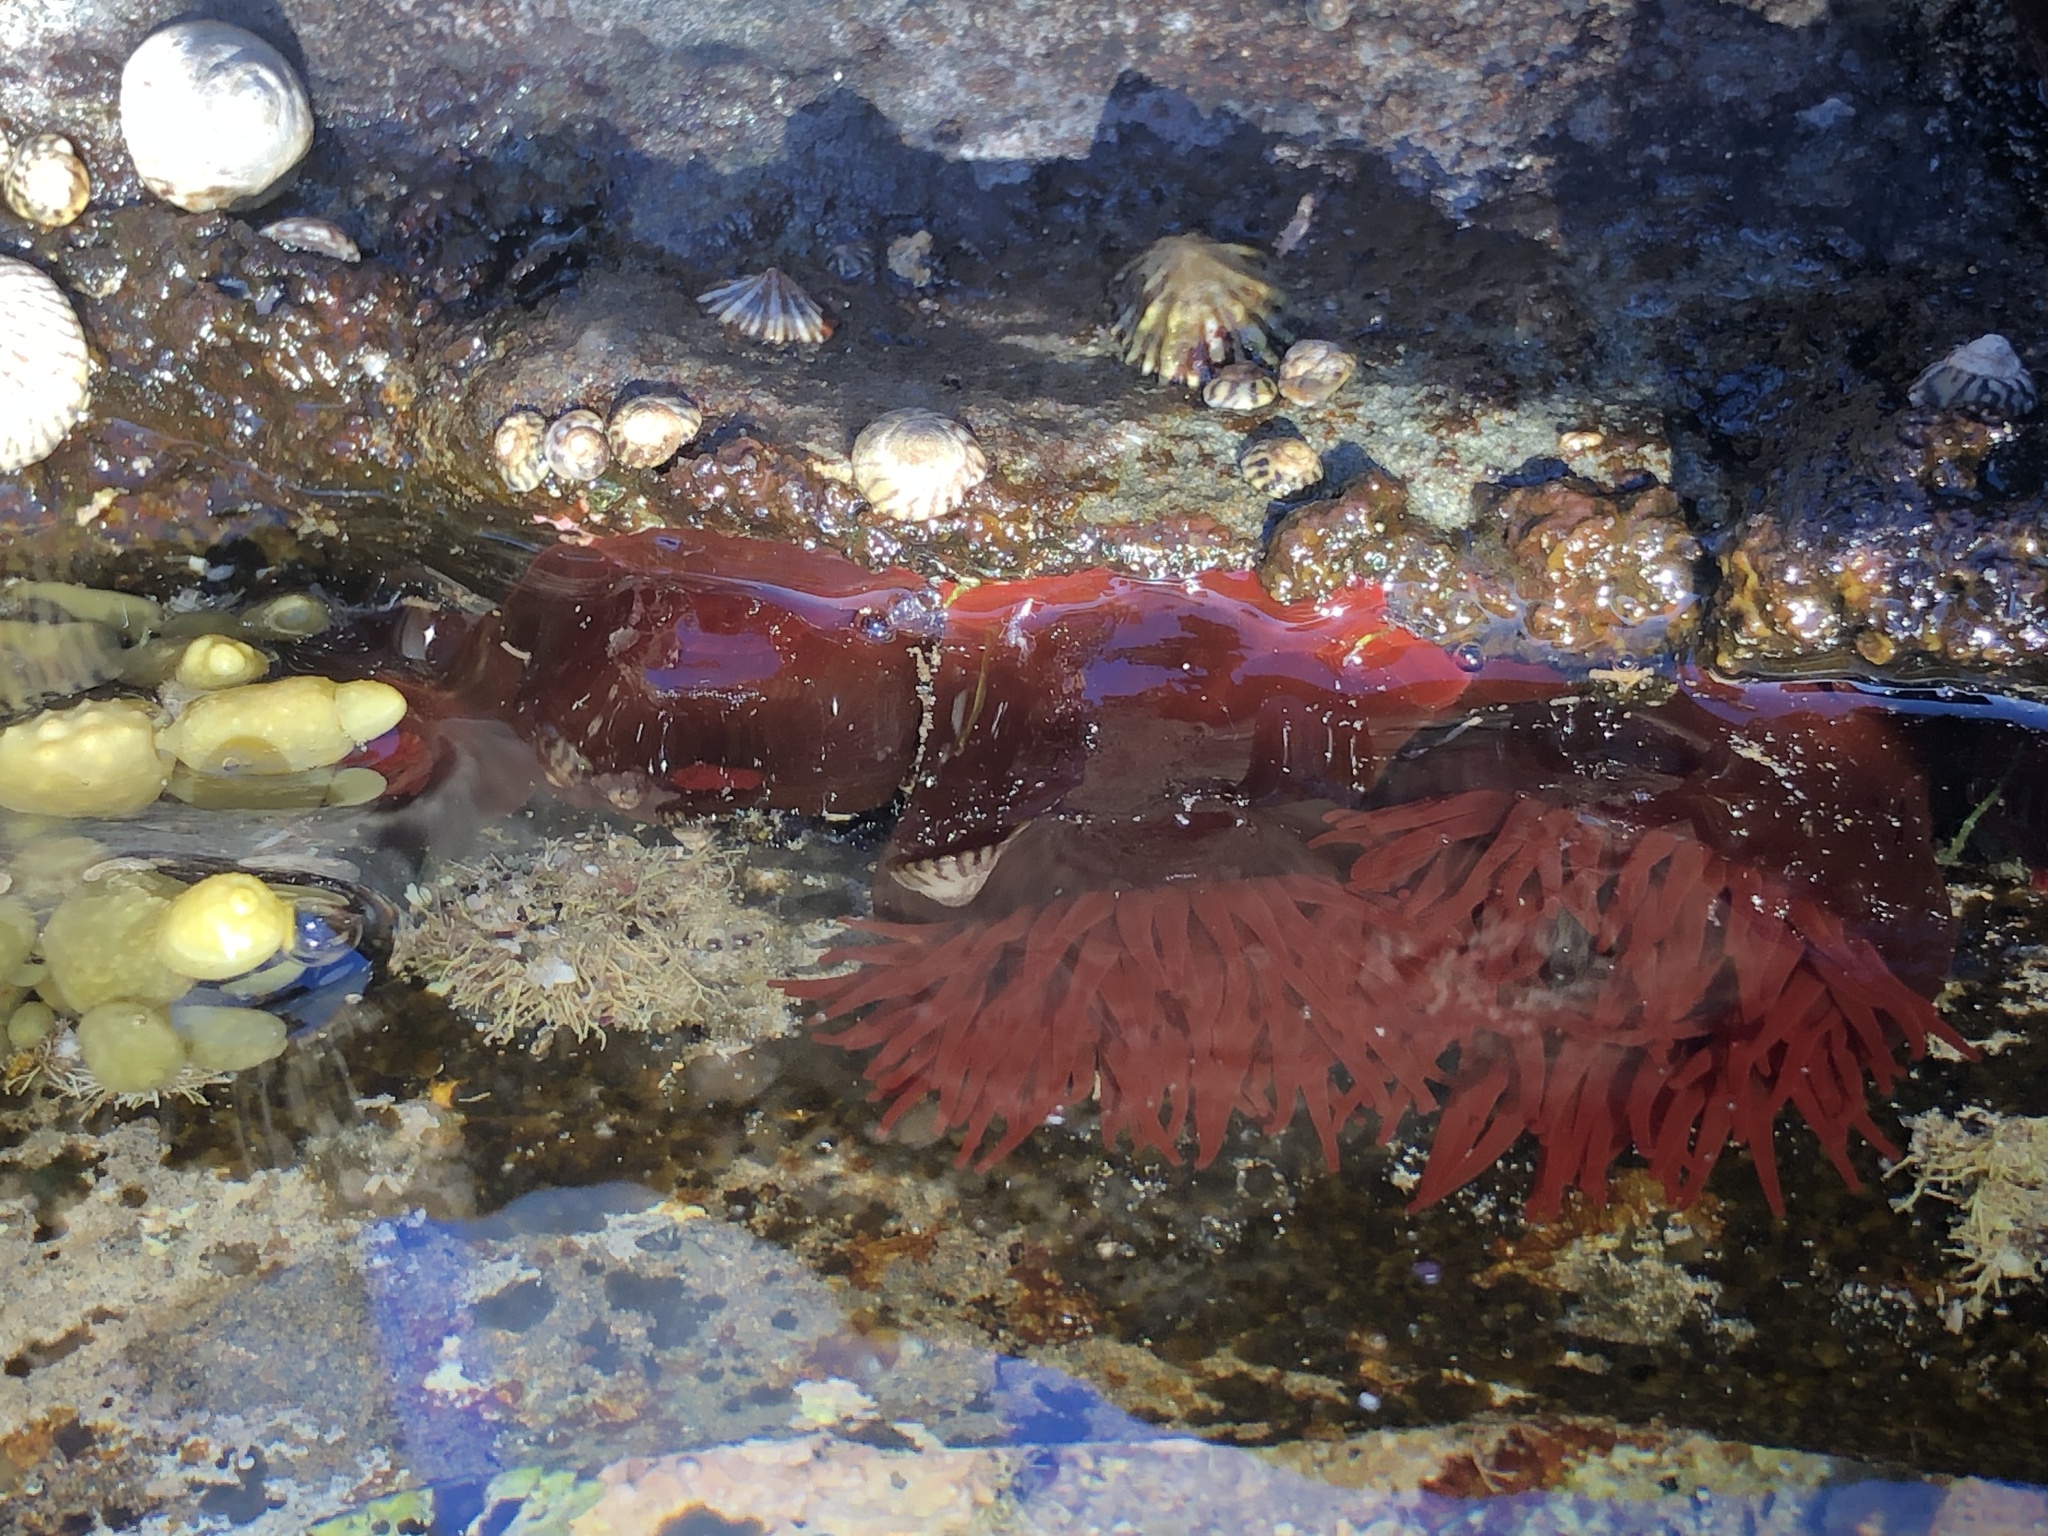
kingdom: Animalia
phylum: Cnidaria
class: Anthozoa
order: Actiniaria
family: Actiniidae
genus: Actinia
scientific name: Actinia tenebrosa
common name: Waratah anemone
